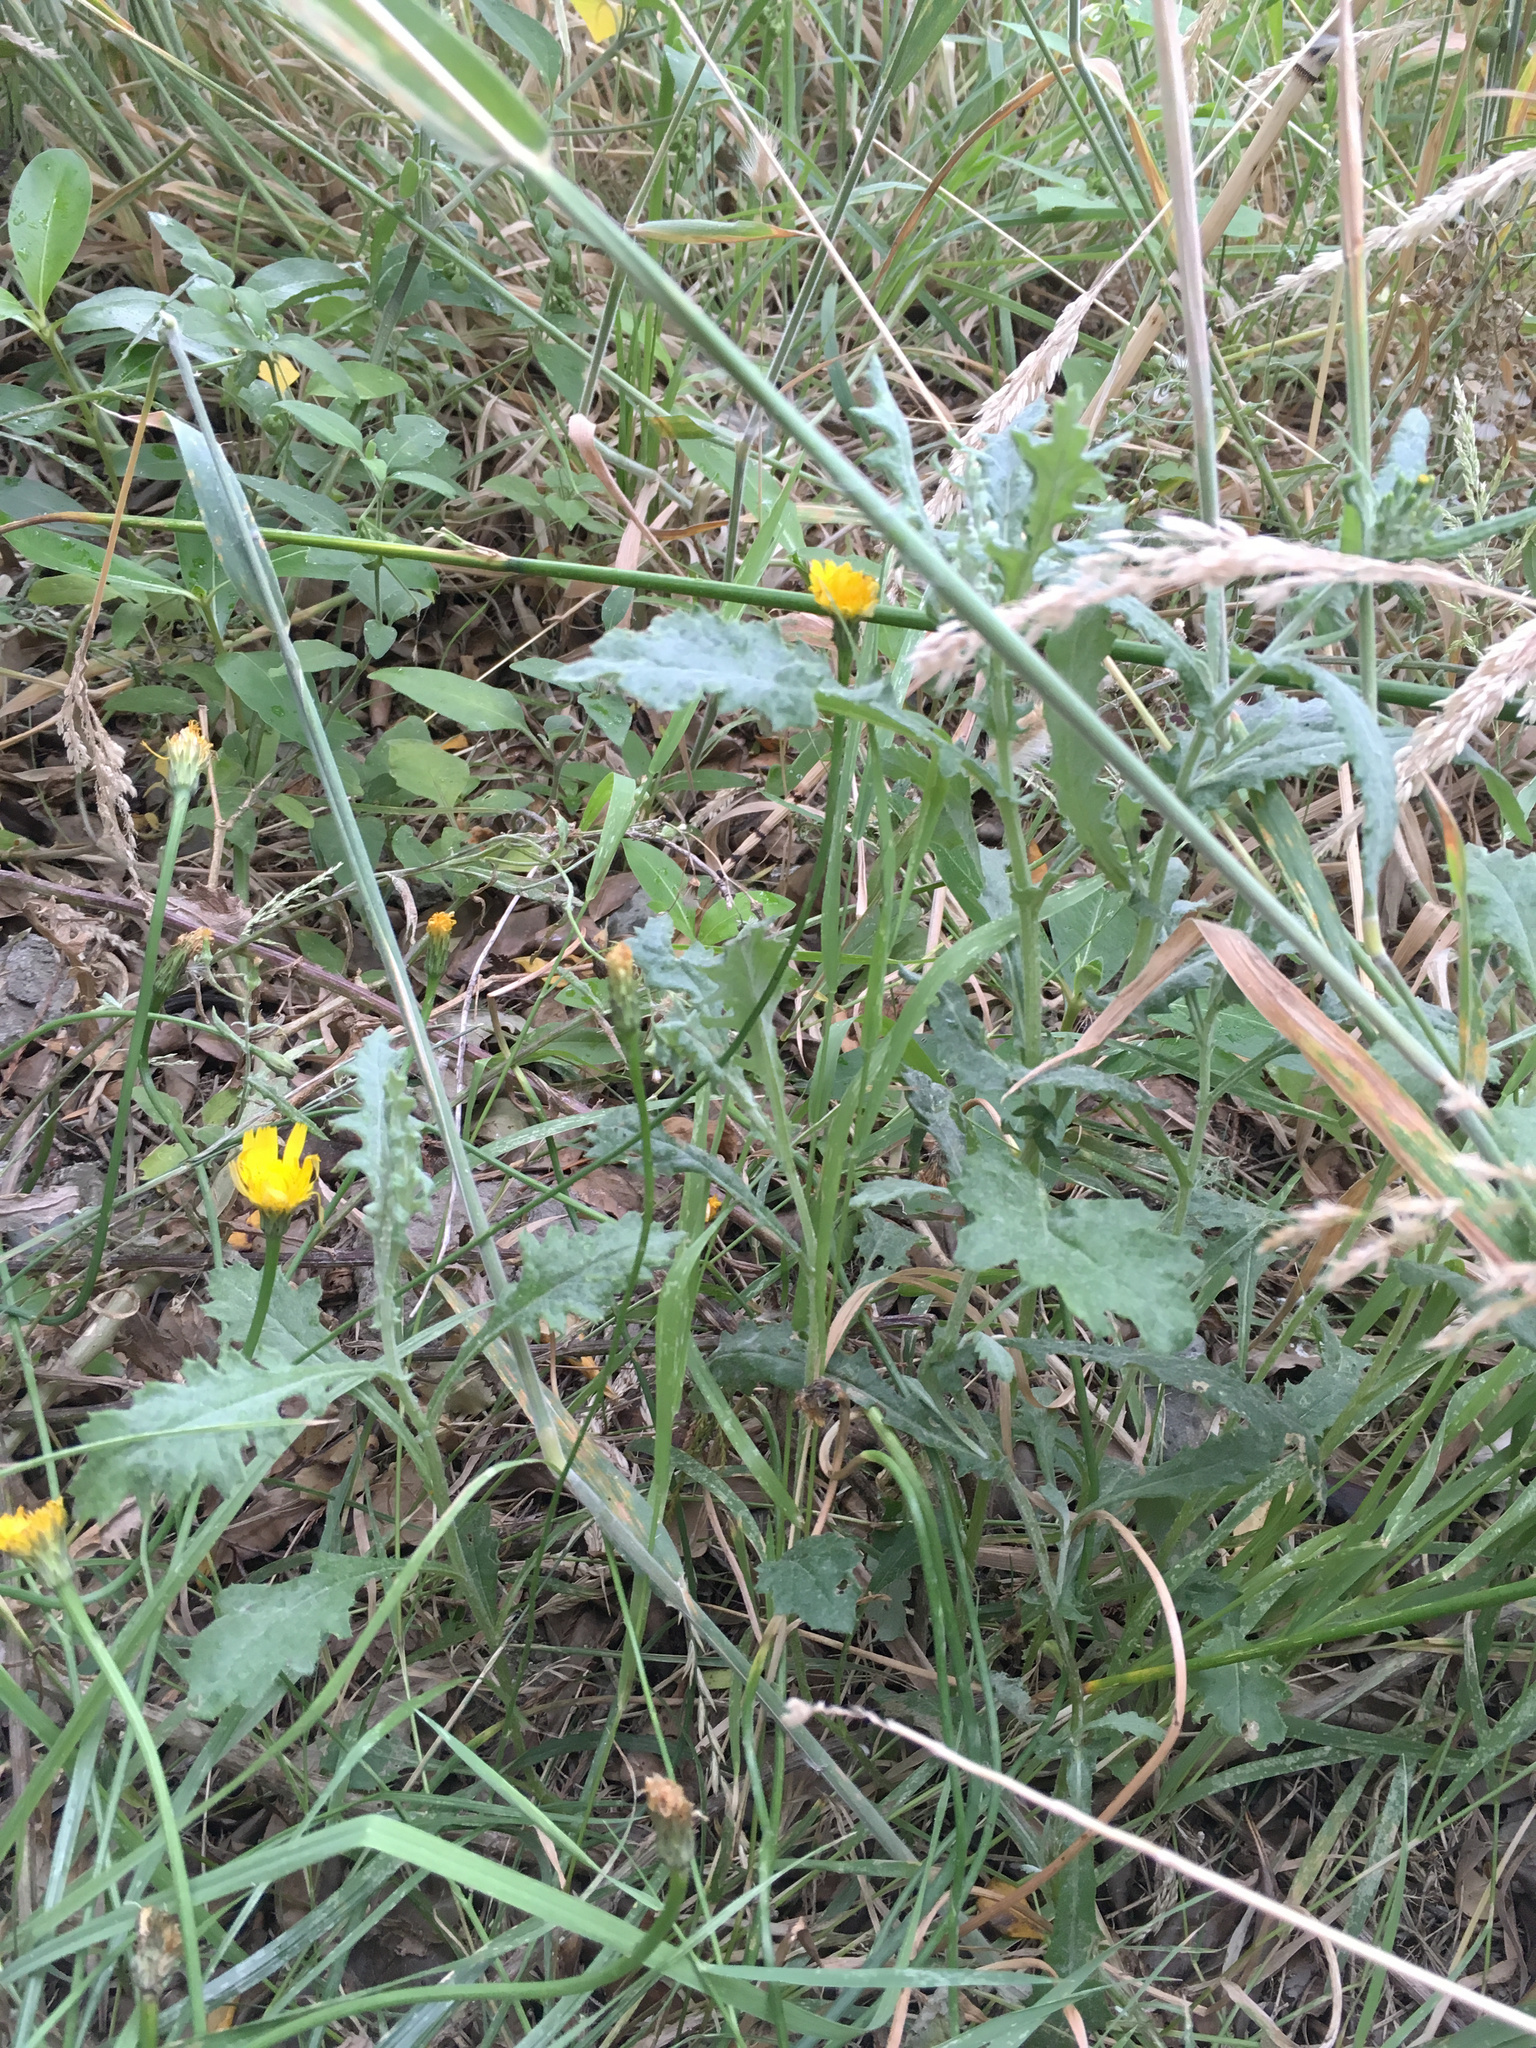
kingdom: Plantae
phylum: Tracheophyta
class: Magnoliopsida
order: Asterales
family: Asteraceae
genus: Senecio
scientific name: Senecio glomeratus
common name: Cutleaf burnweed
